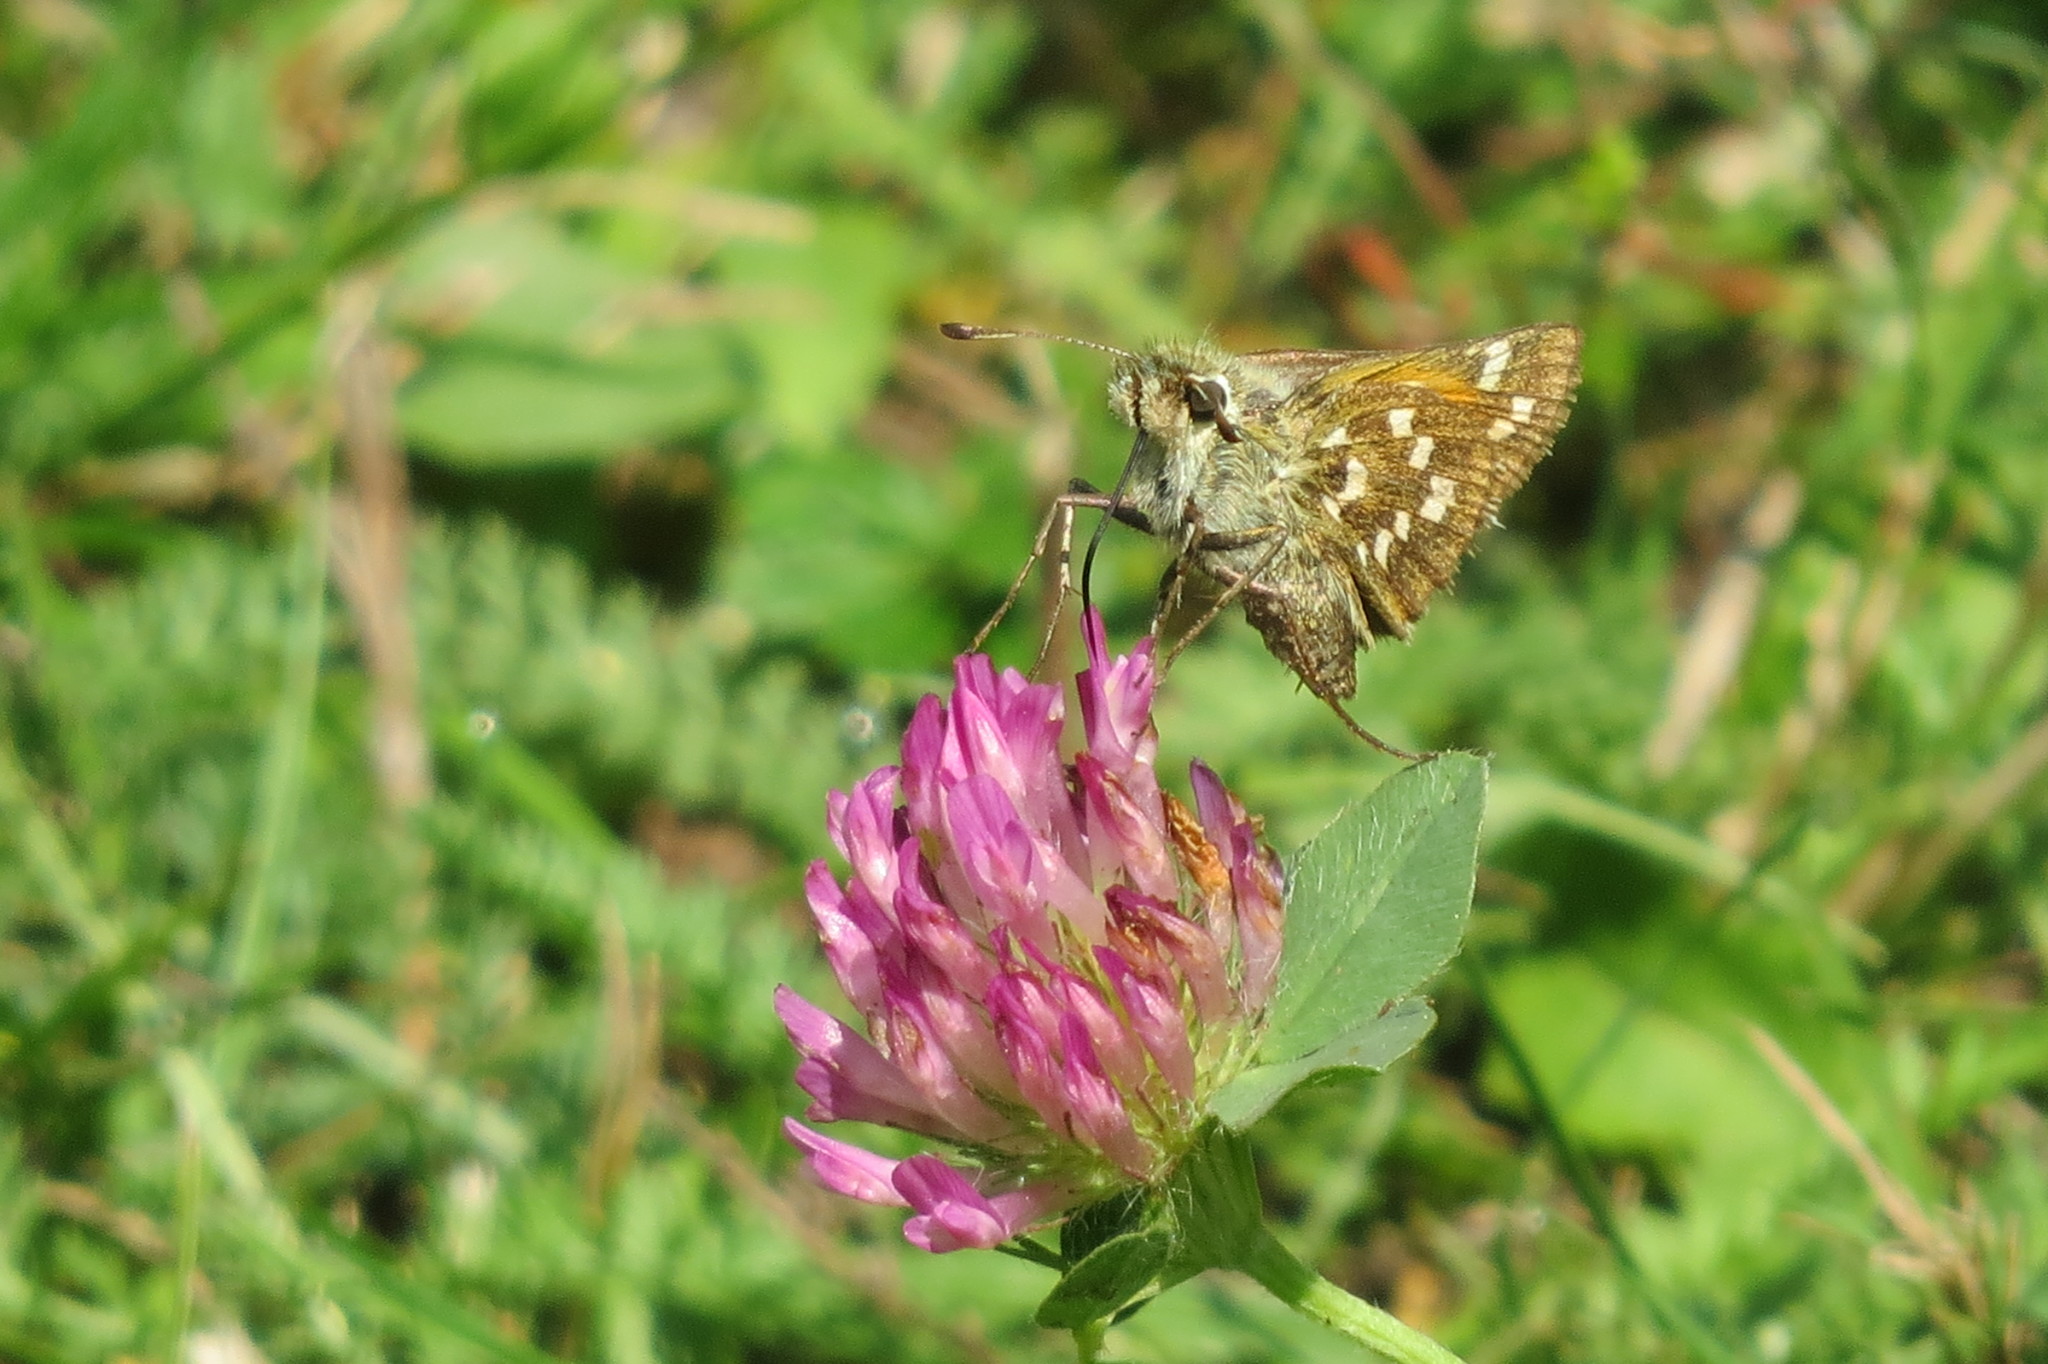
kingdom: Animalia
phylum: Arthropoda
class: Insecta
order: Lepidoptera
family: Hesperiidae
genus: Hesperia
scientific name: Hesperia comma
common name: Common branded skipper
